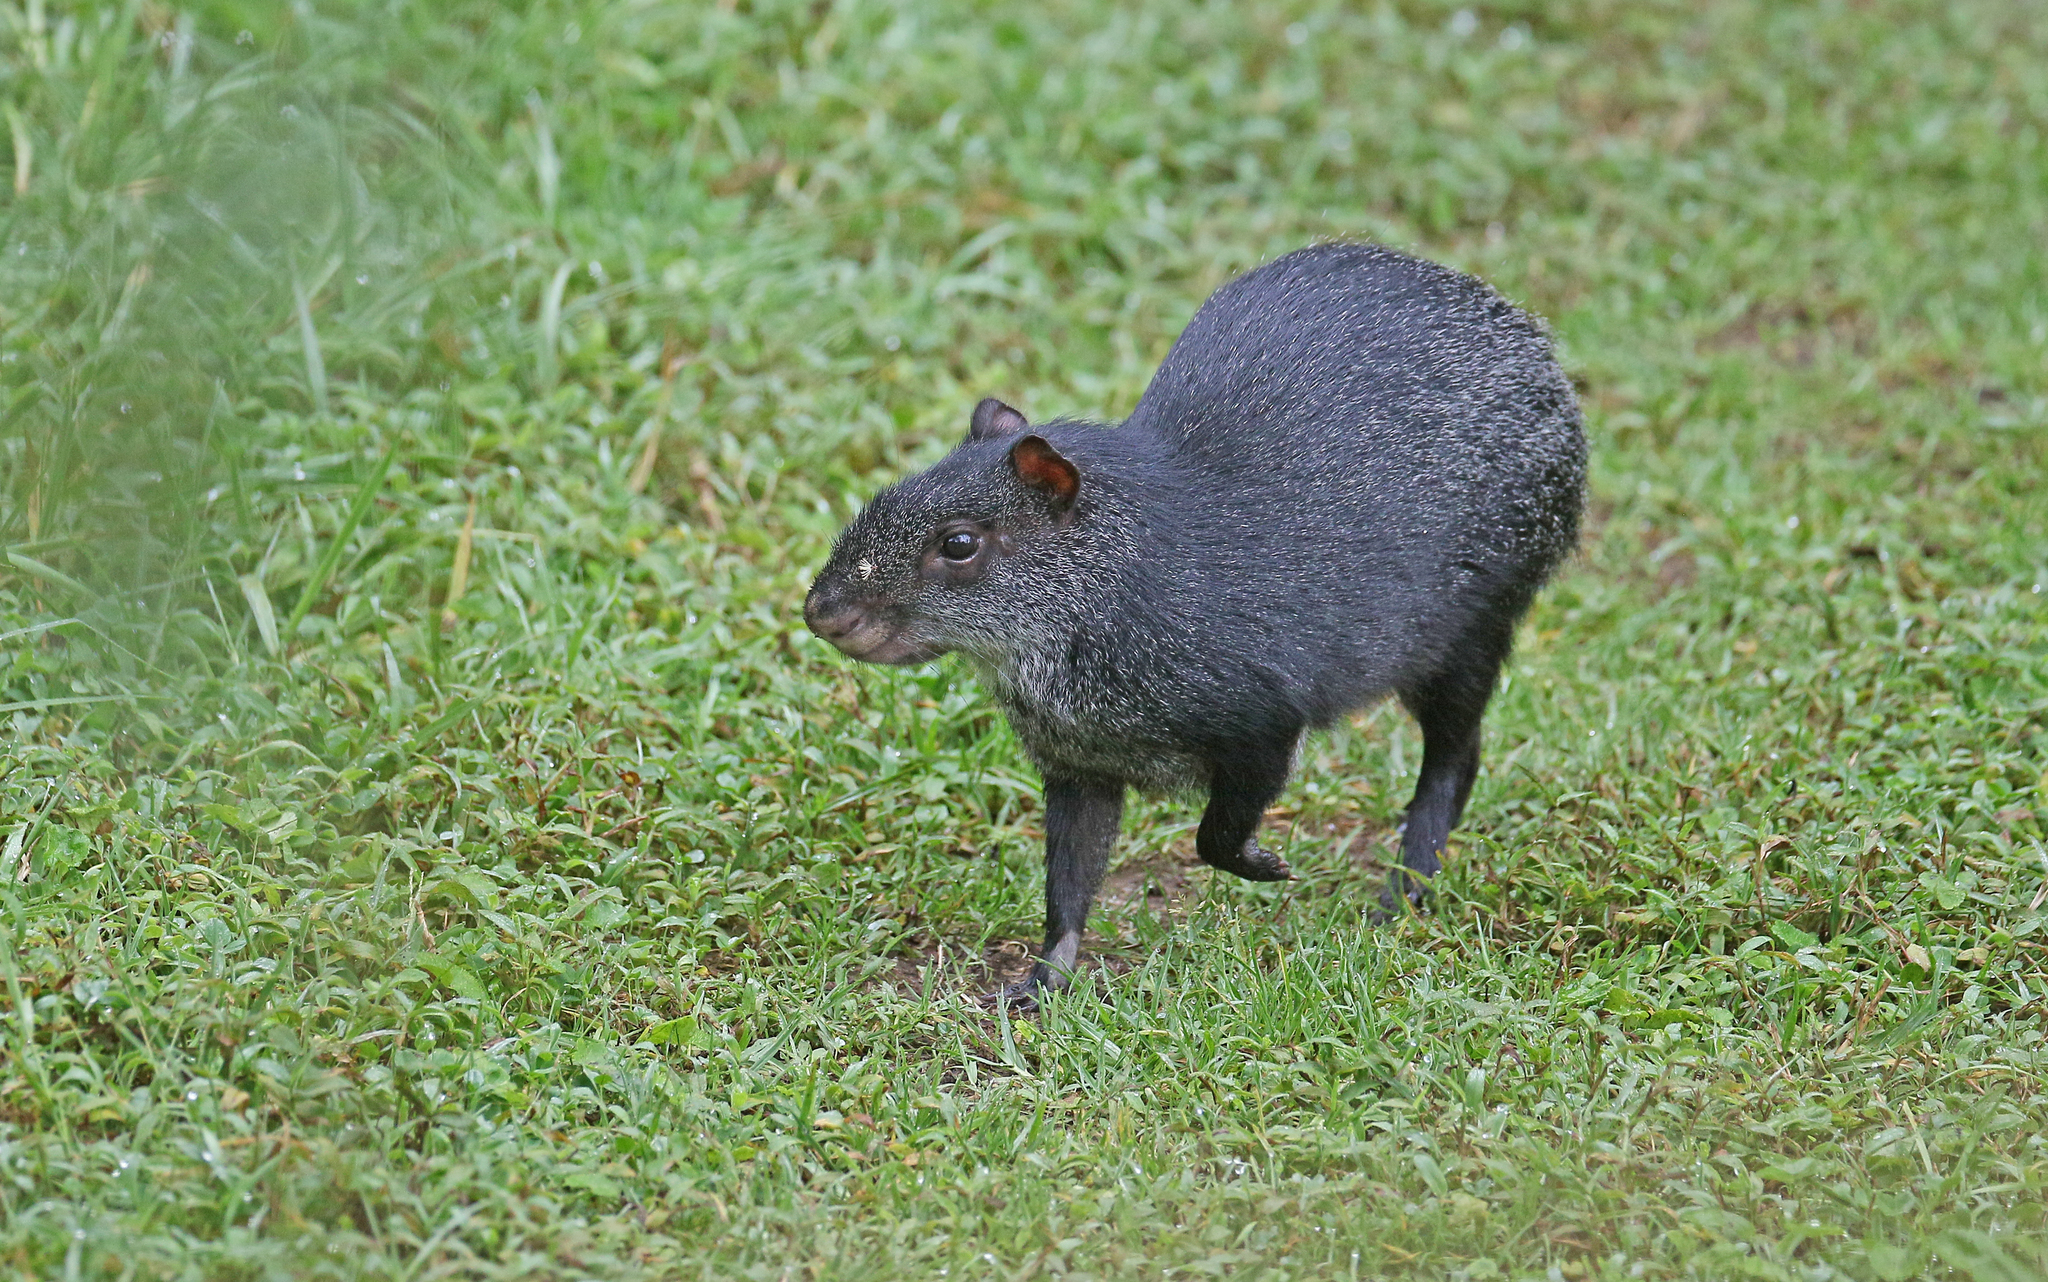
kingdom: Animalia
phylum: Chordata
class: Mammalia
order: Rodentia
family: Dasyproctidae
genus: Dasyprocta
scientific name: Dasyprocta fuliginosa
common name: Black agouti
